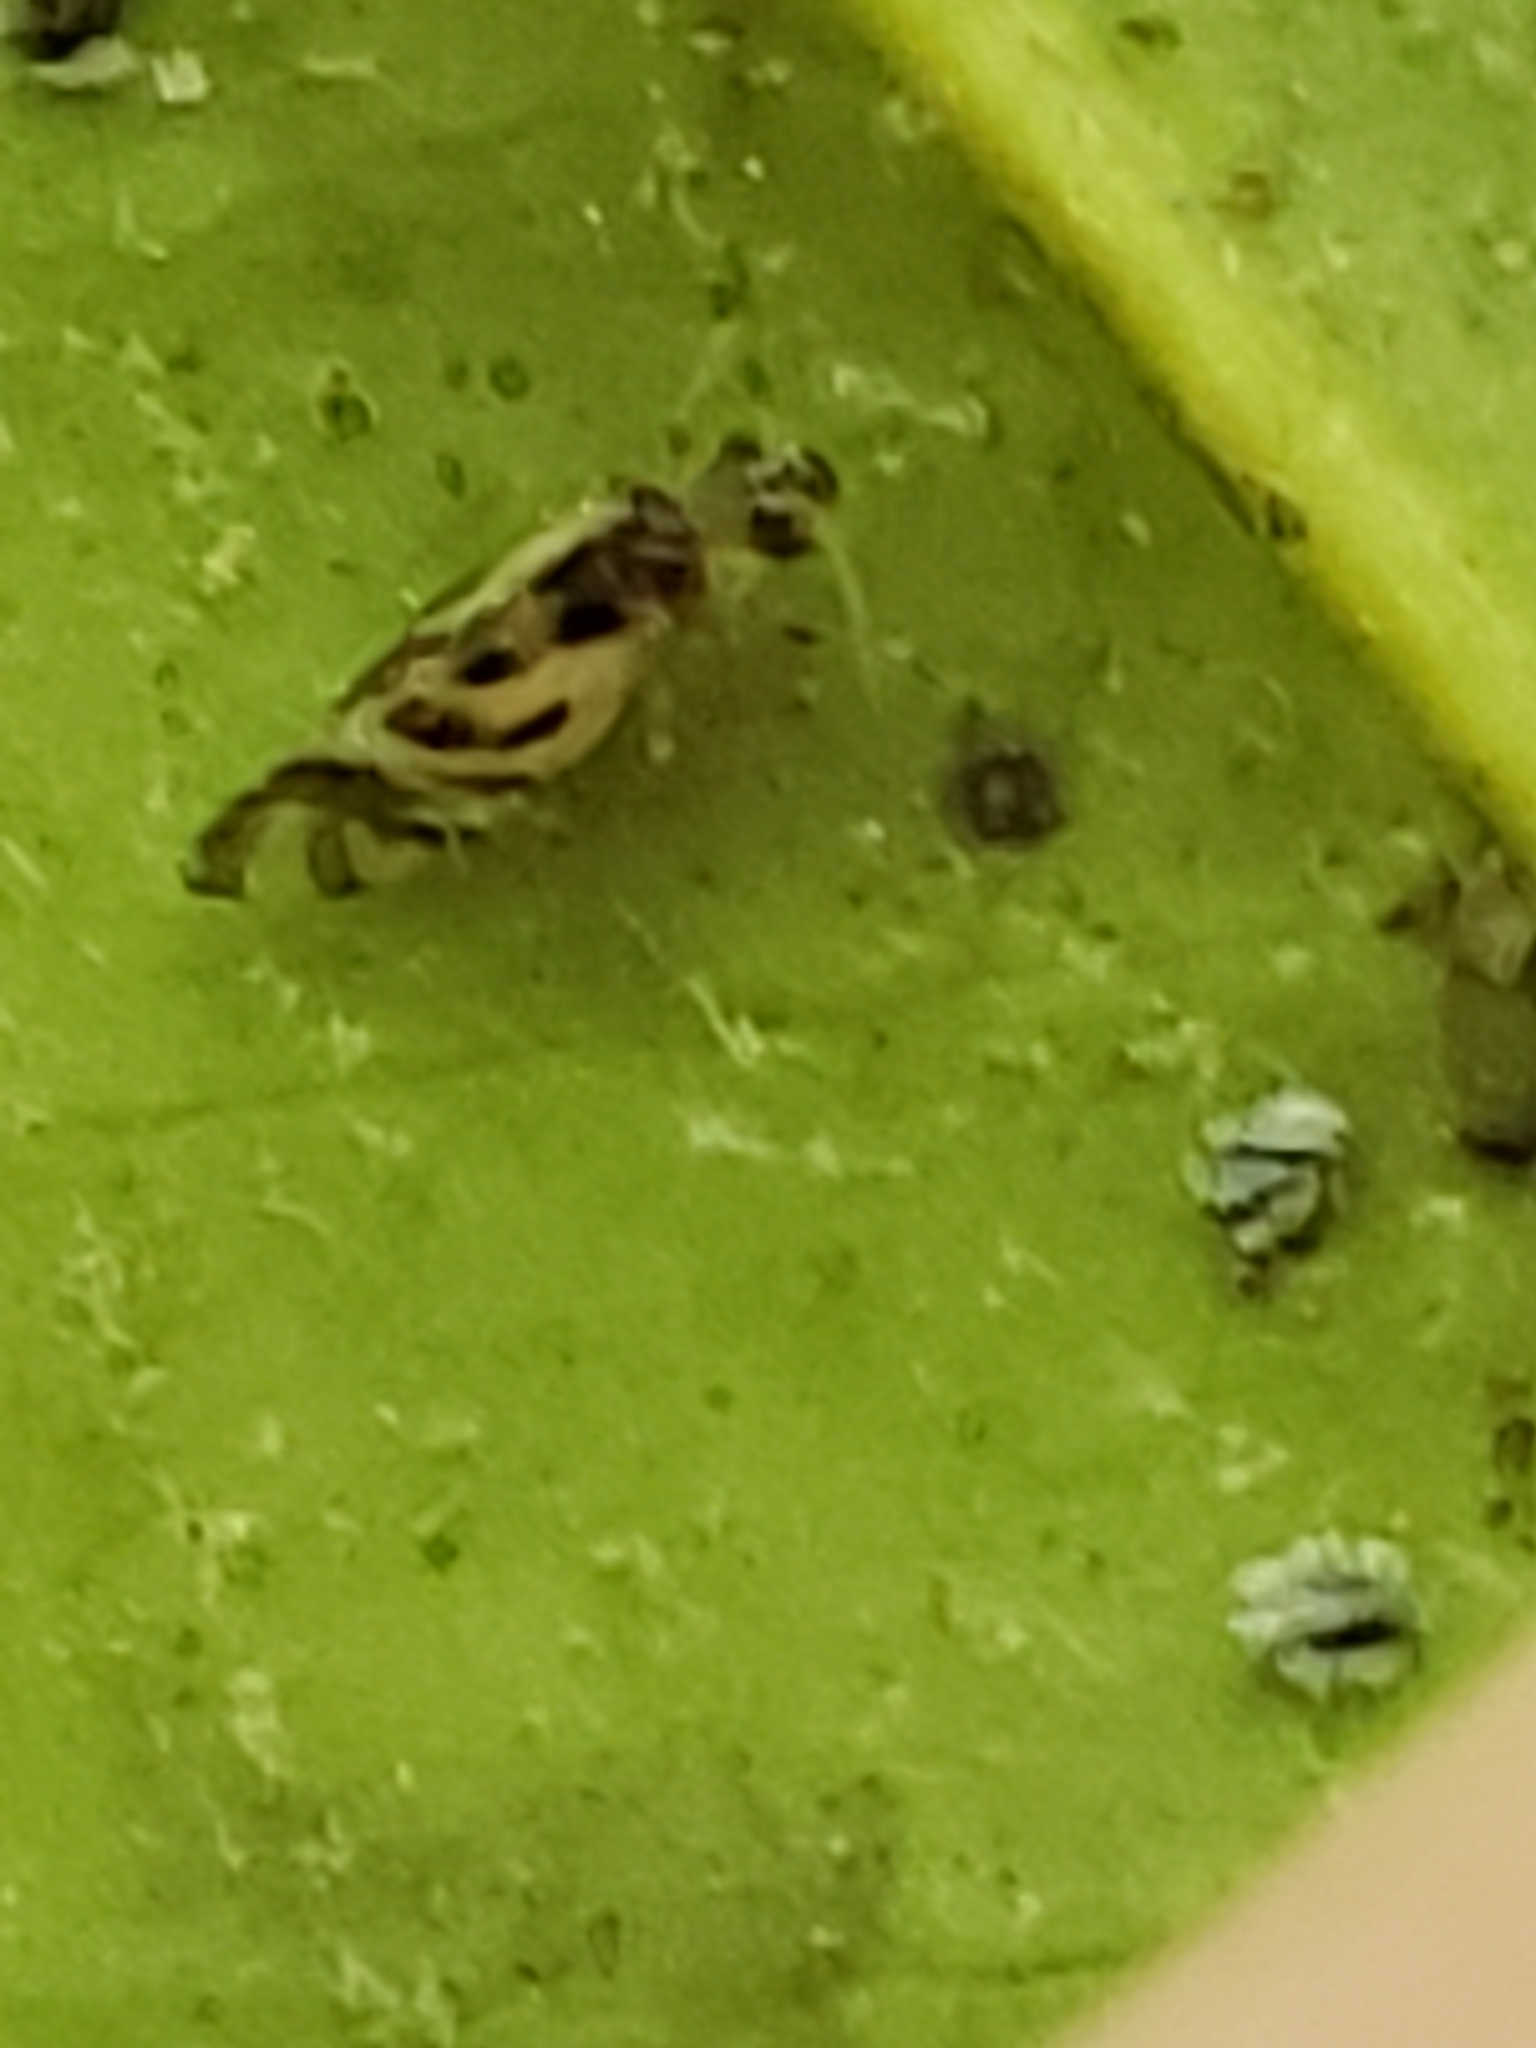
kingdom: Animalia
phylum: Arthropoda
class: Insecta
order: Psocodea
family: Stenopsocidae
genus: Graphopsocus
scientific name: Graphopsocus cruciatus
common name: Lizard bark louse
